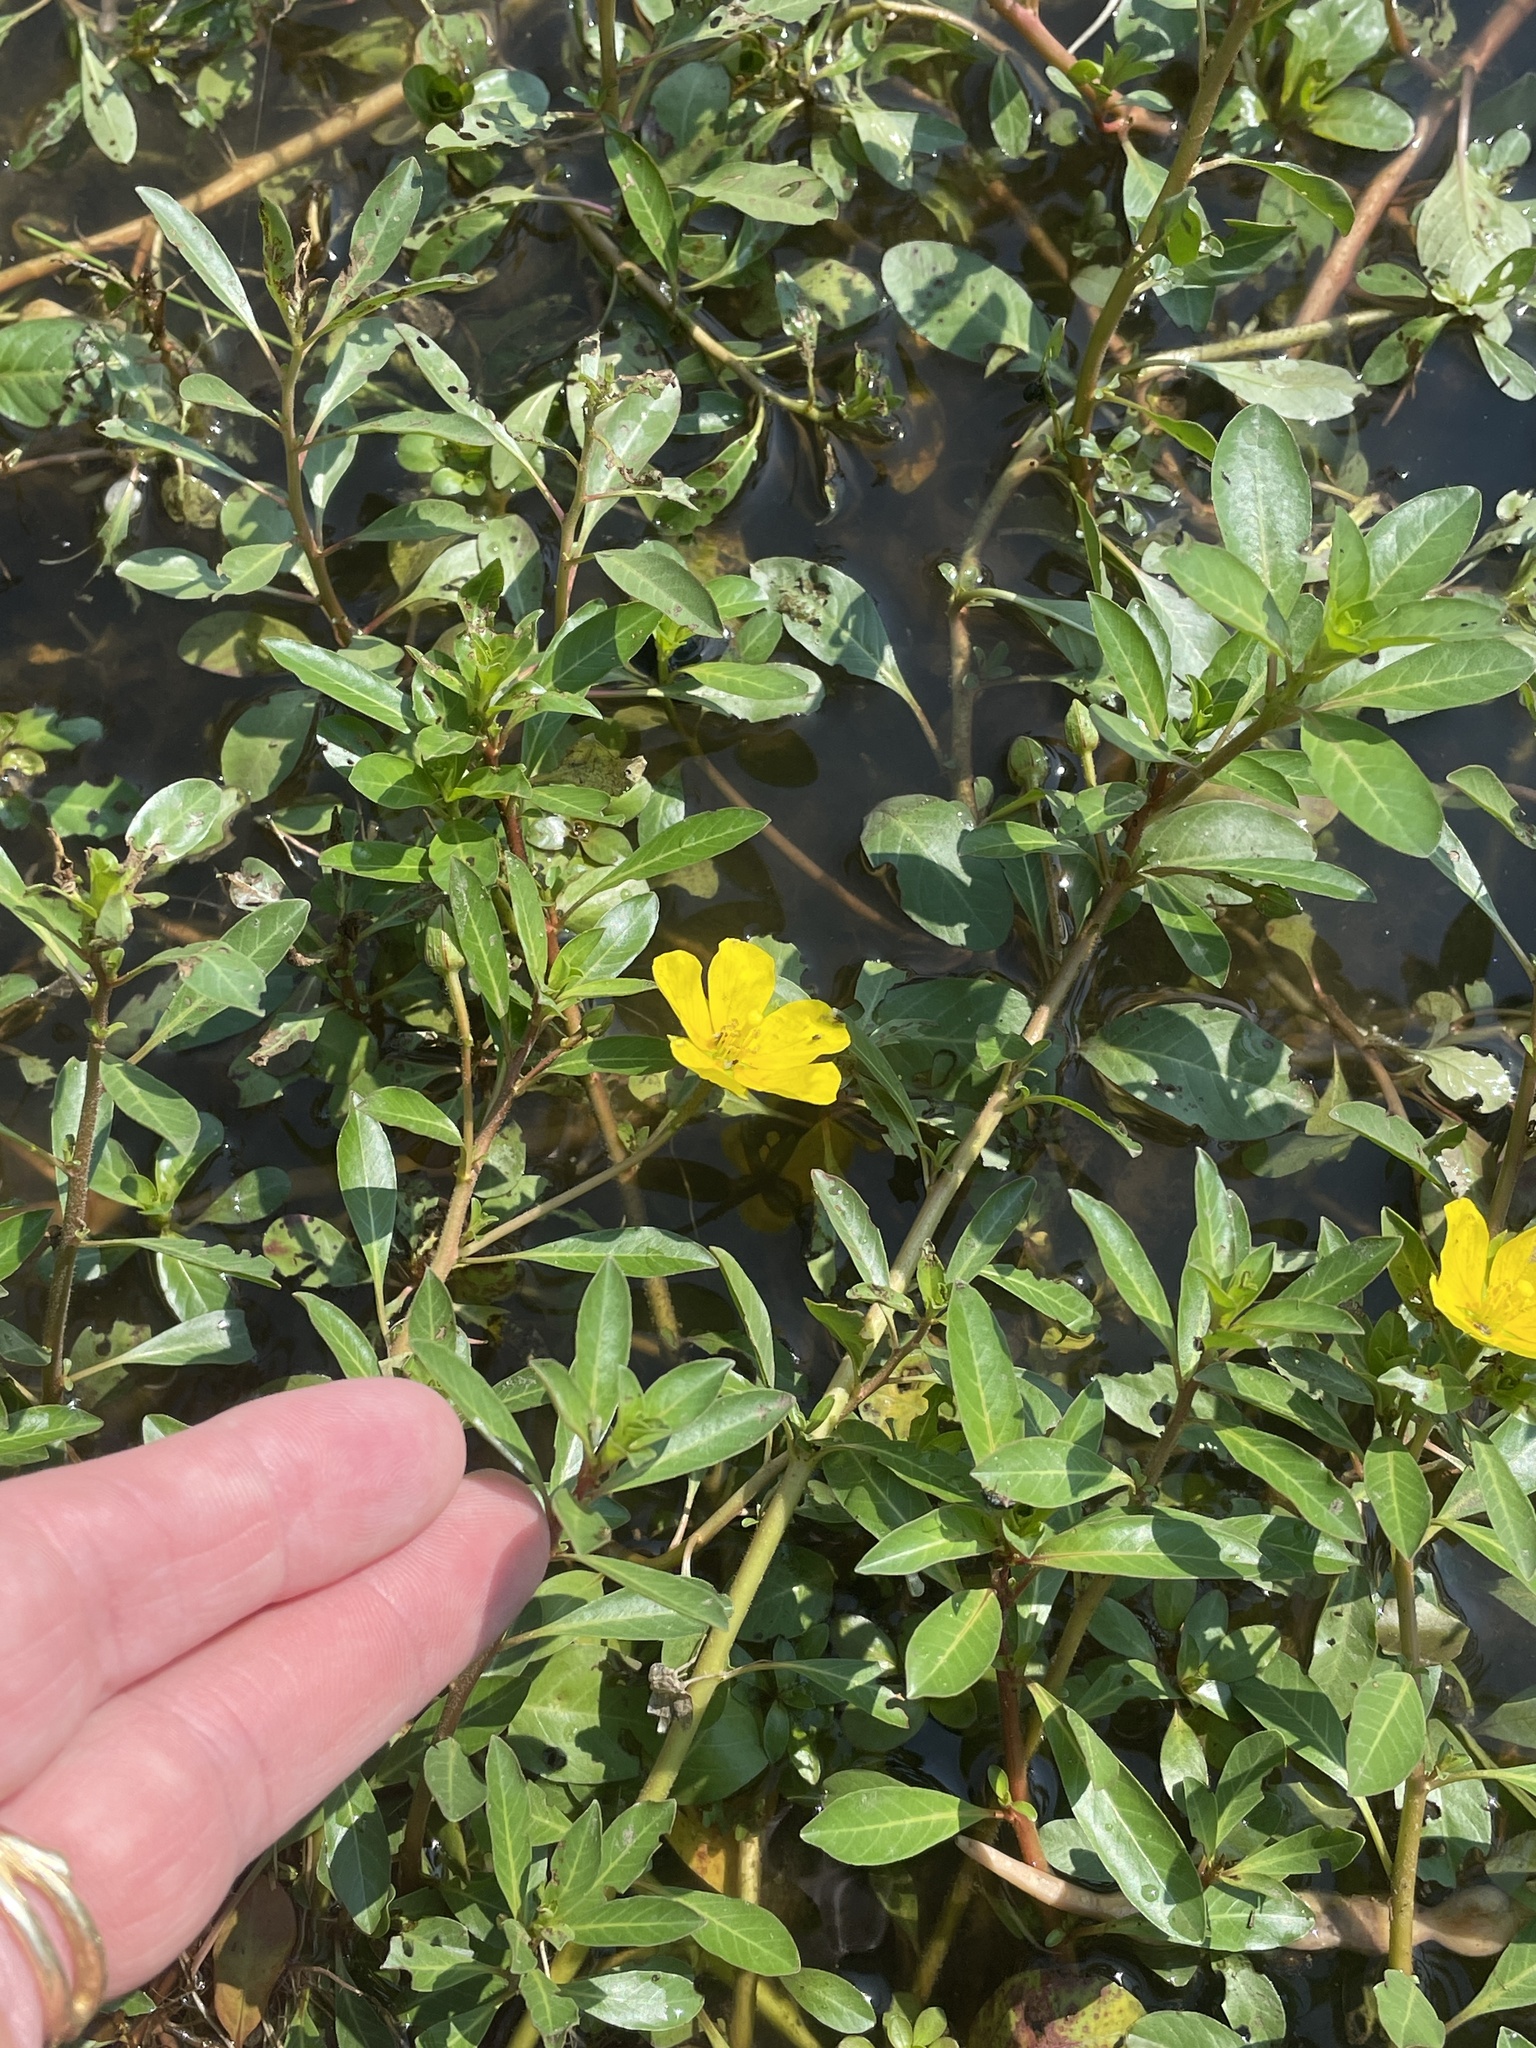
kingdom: Plantae
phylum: Tracheophyta
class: Magnoliopsida
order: Myrtales
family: Onagraceae
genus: Ludwigia
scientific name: Ludwigia peploides
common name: Floating primrose-willow
